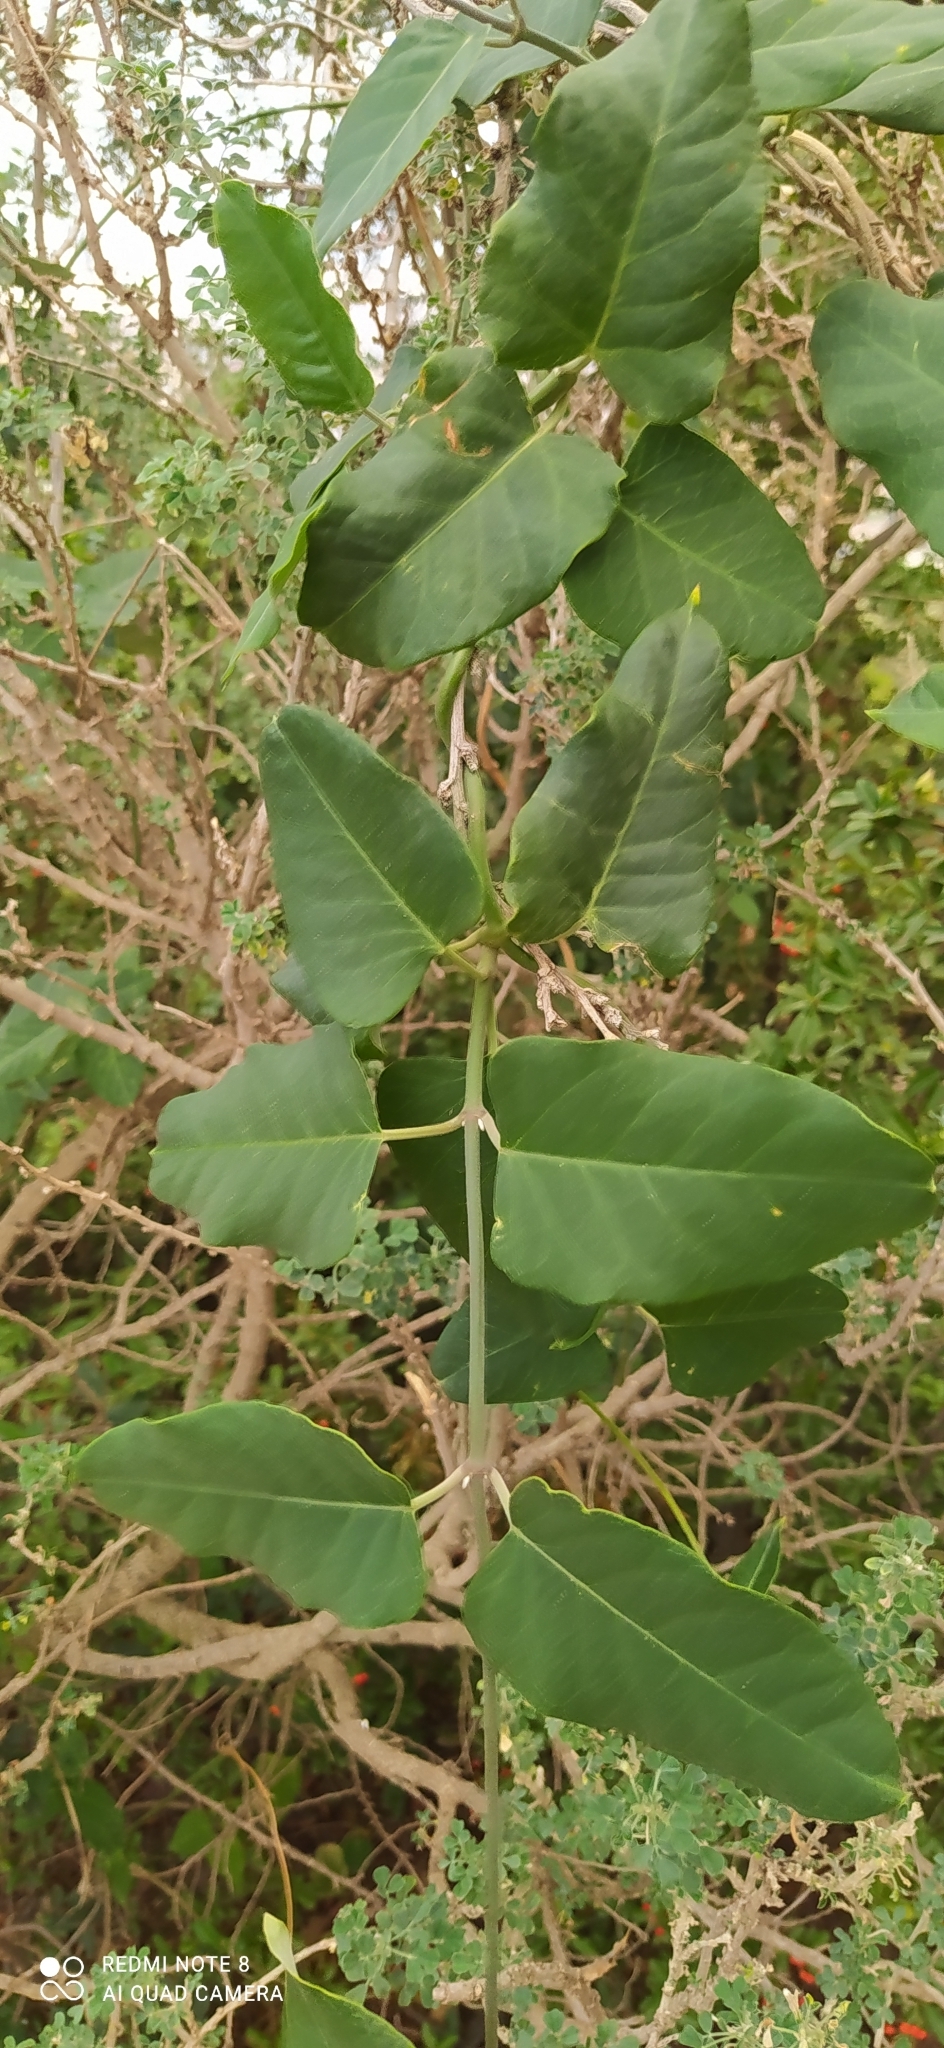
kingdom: Plantae
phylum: Tracheophyta
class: Magnoliopsida
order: Gentianales
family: Apocynaceae
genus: Araujia
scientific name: Araujia sericifera
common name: White bladderflower
